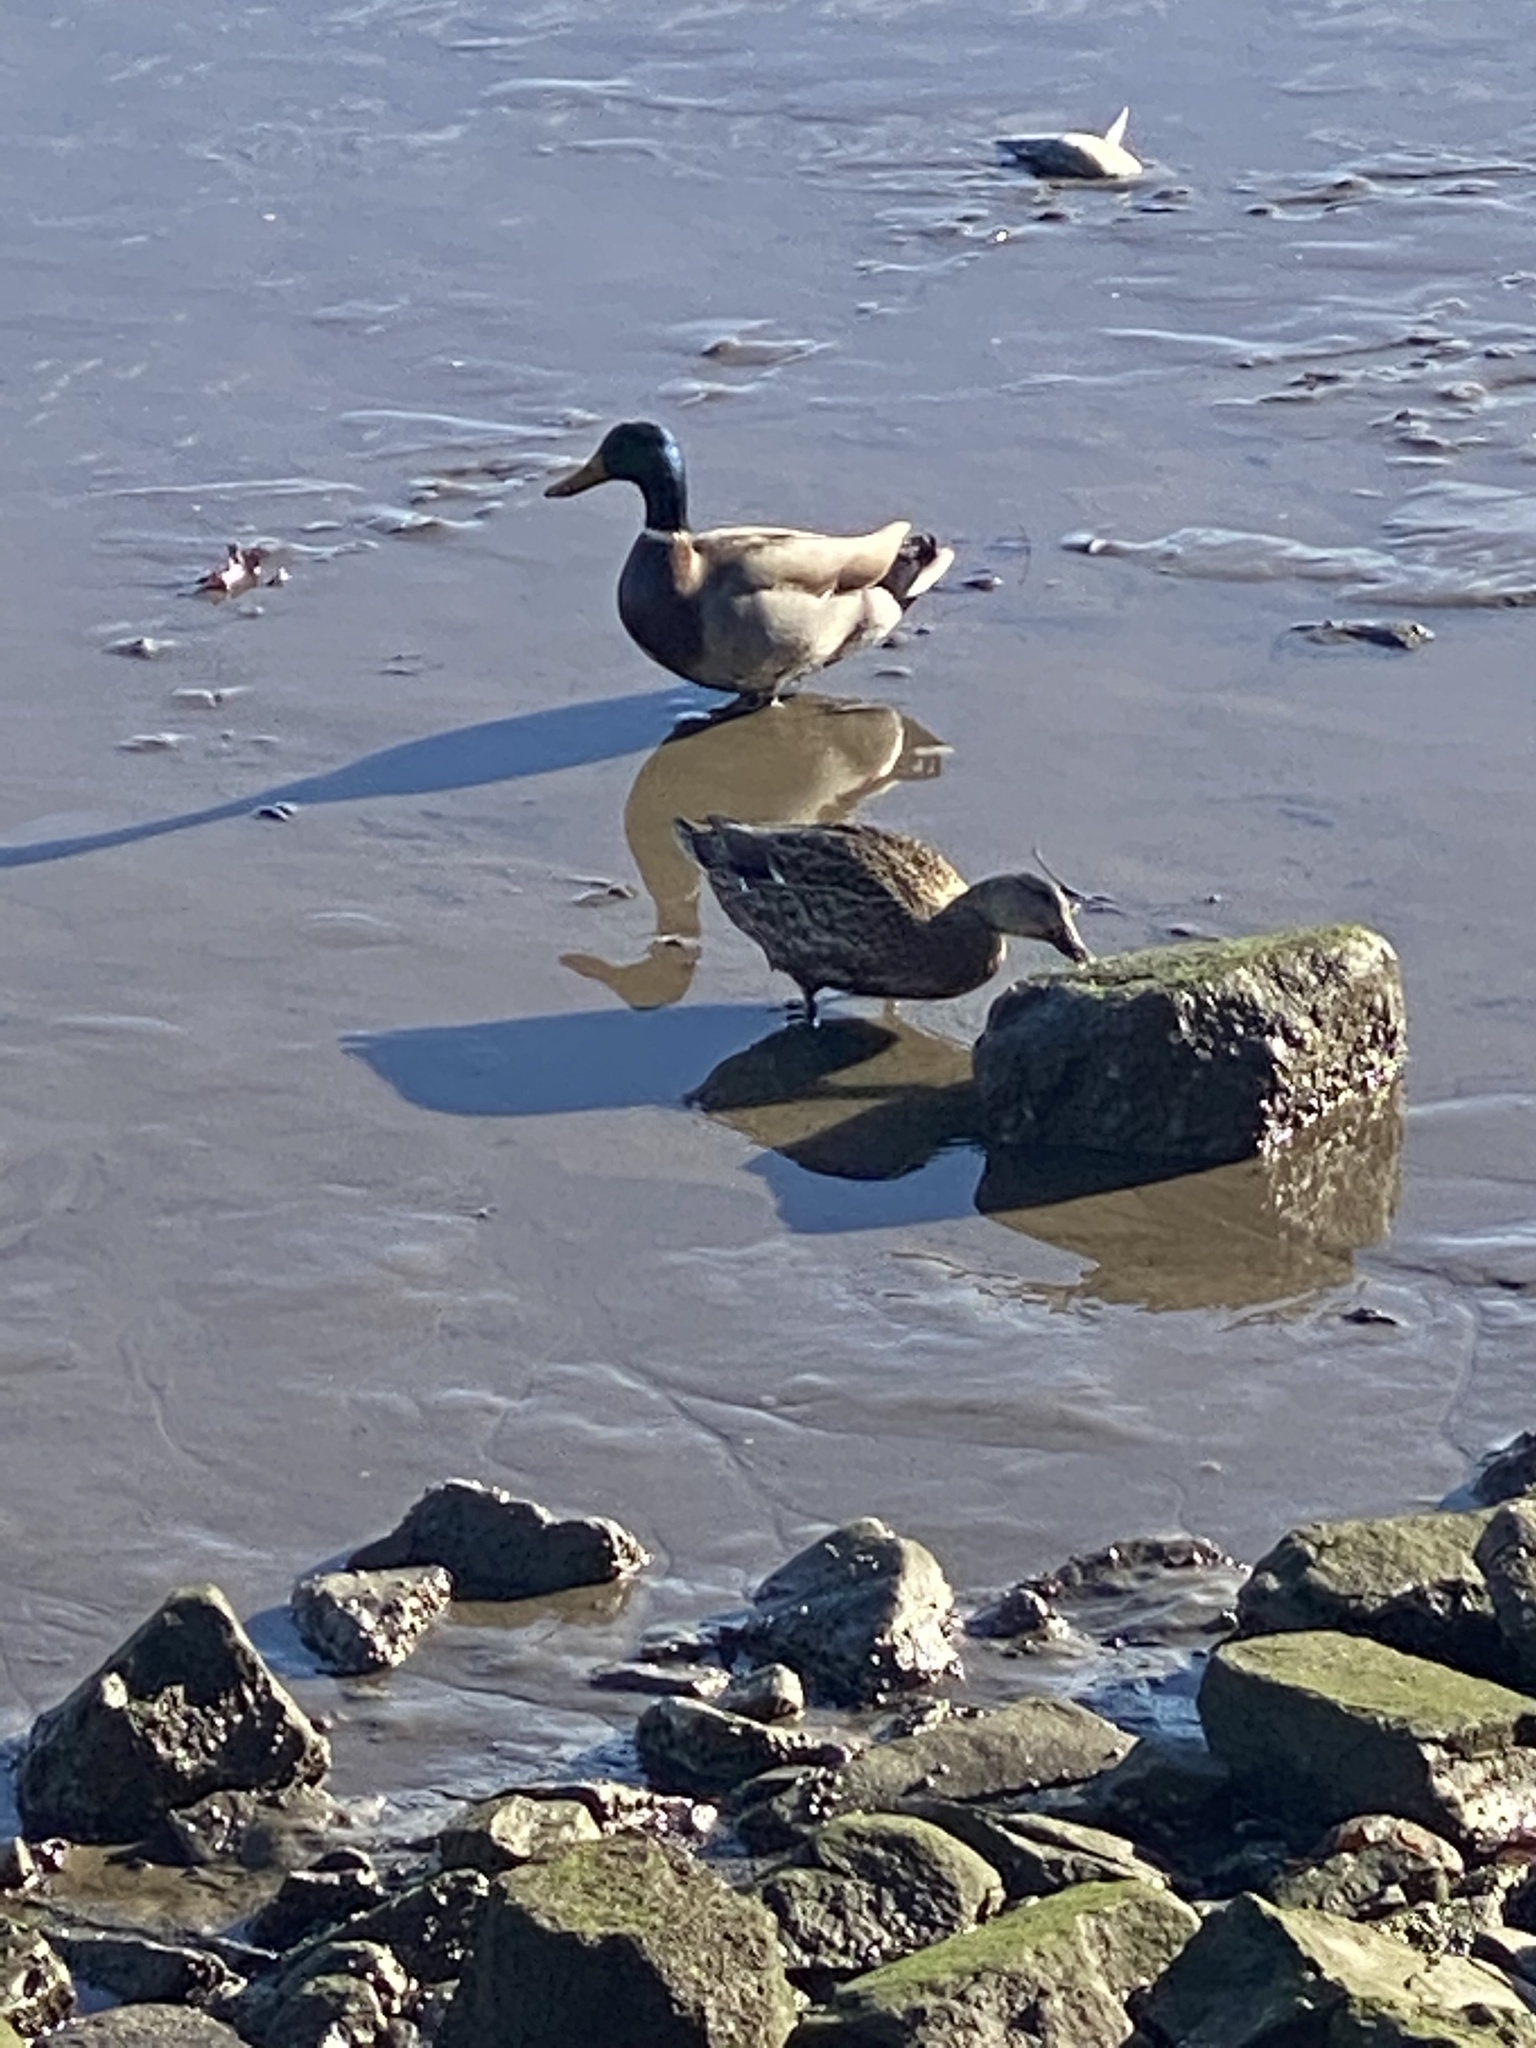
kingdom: Animalia
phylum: Chordata
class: Aves
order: Anseriformes
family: Anatidae
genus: Anas
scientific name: Anas platyrhynchos
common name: Mallard
